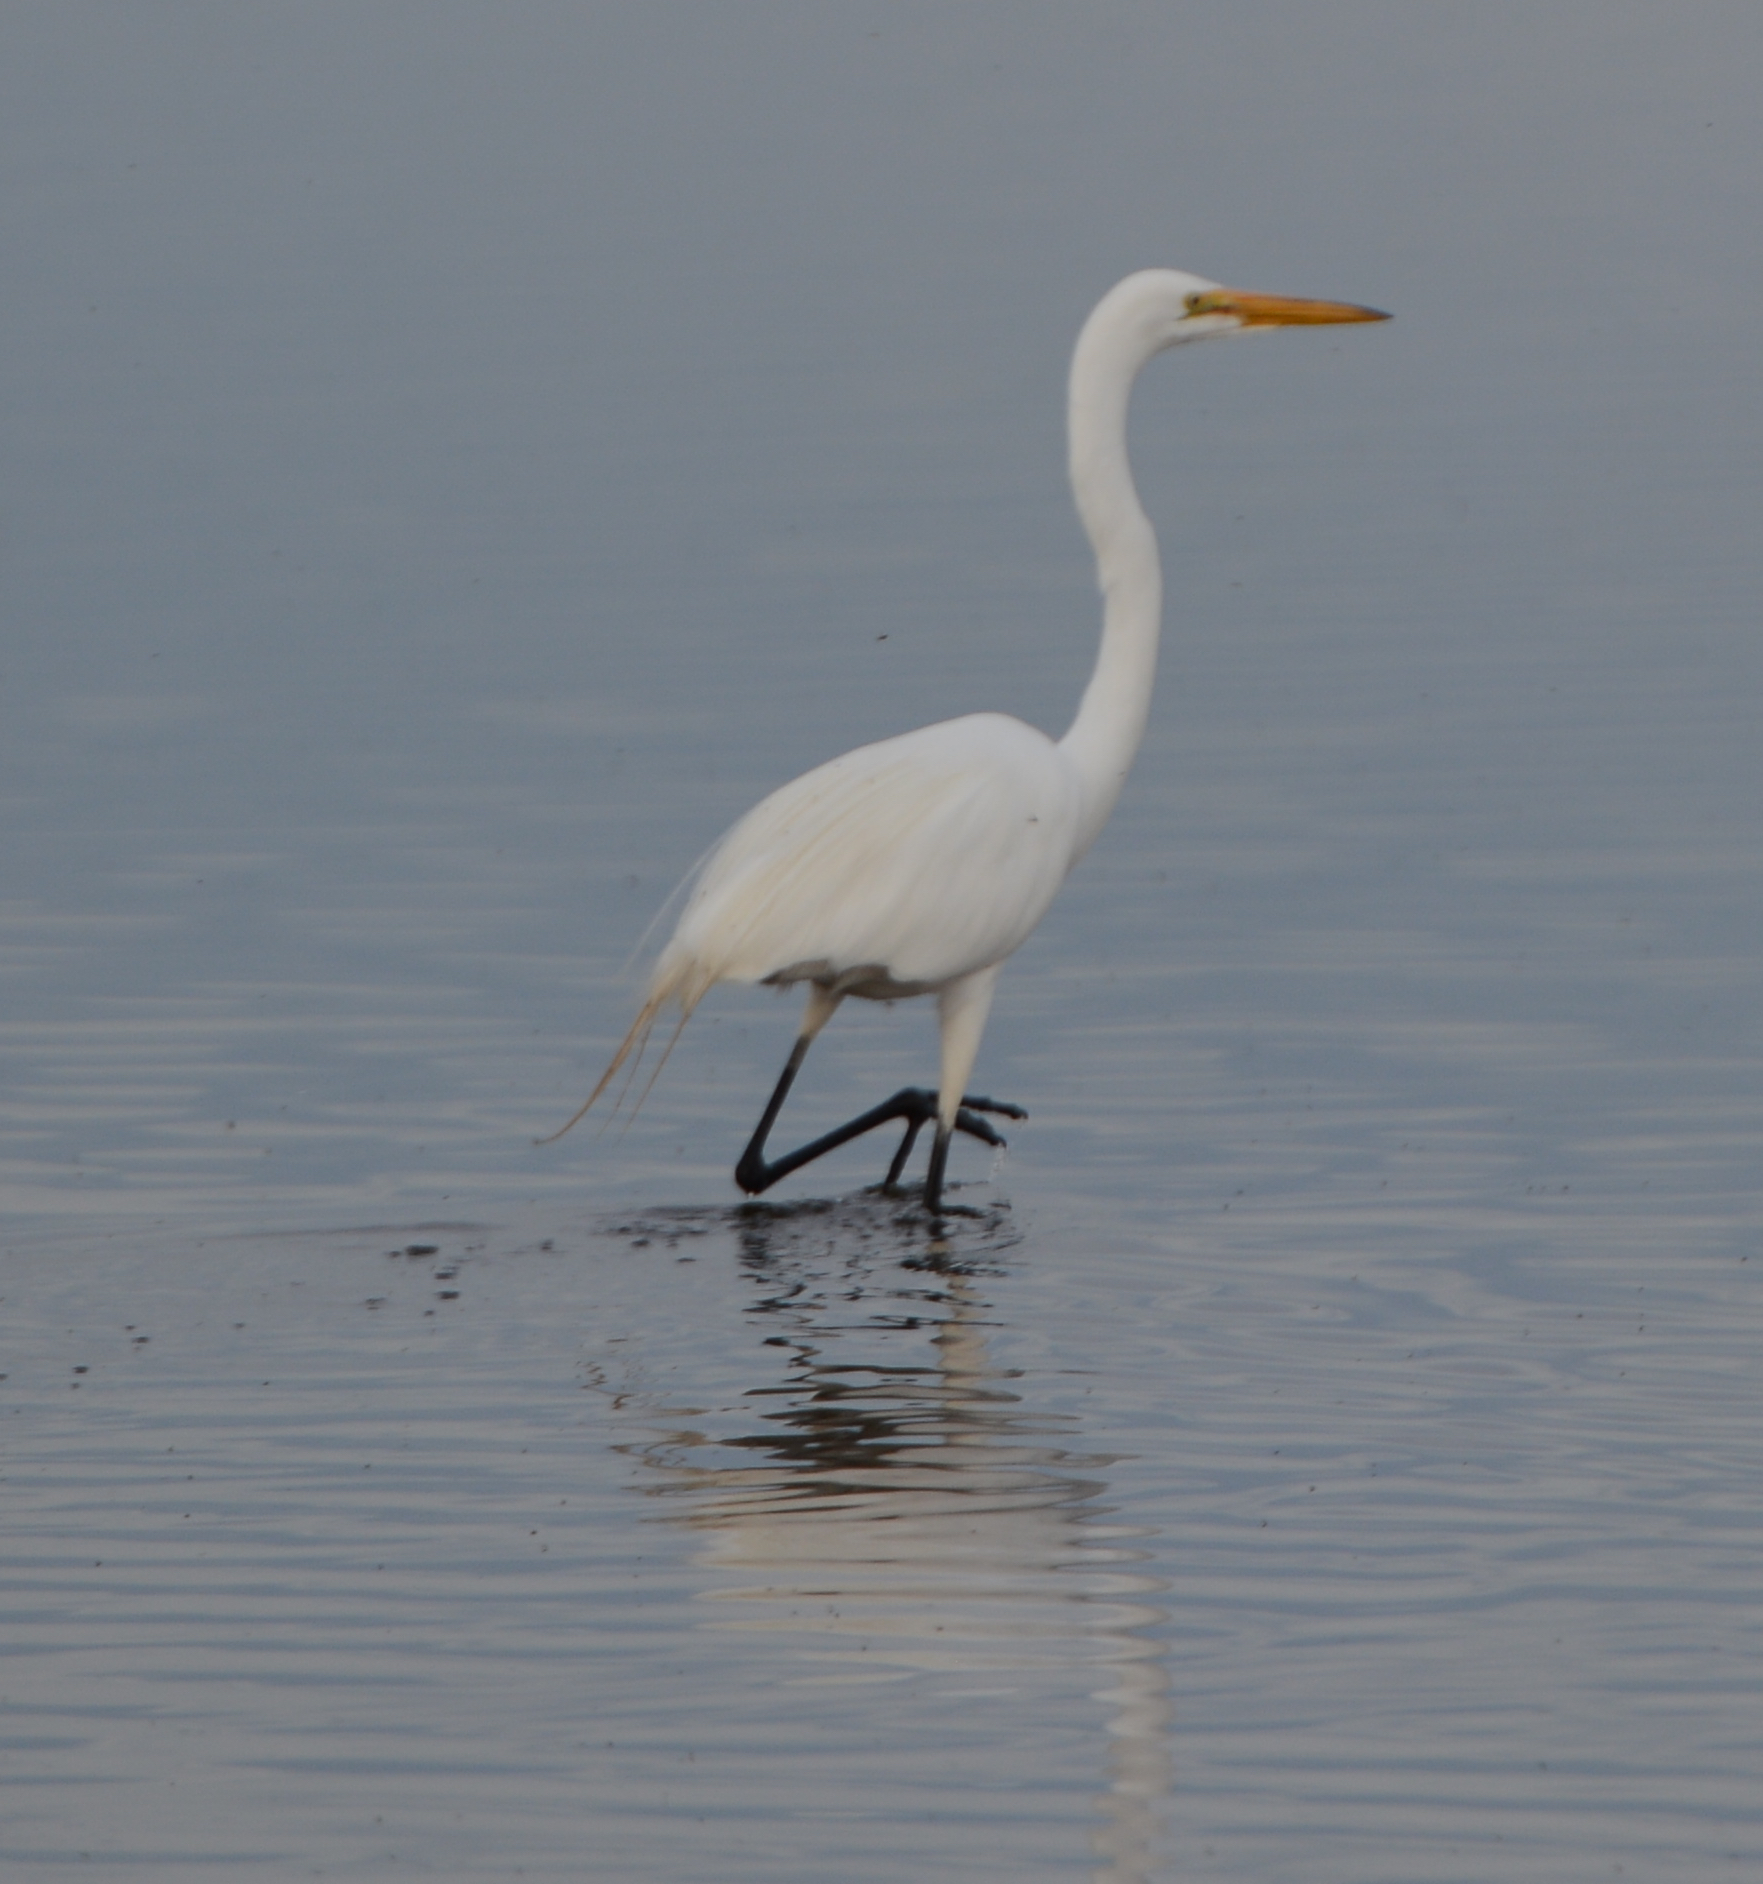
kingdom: Animalia
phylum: Chordata
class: Aves
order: Pelecaniformes
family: Ardeidae
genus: Ardea
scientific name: Ardea alba
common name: Great egret
